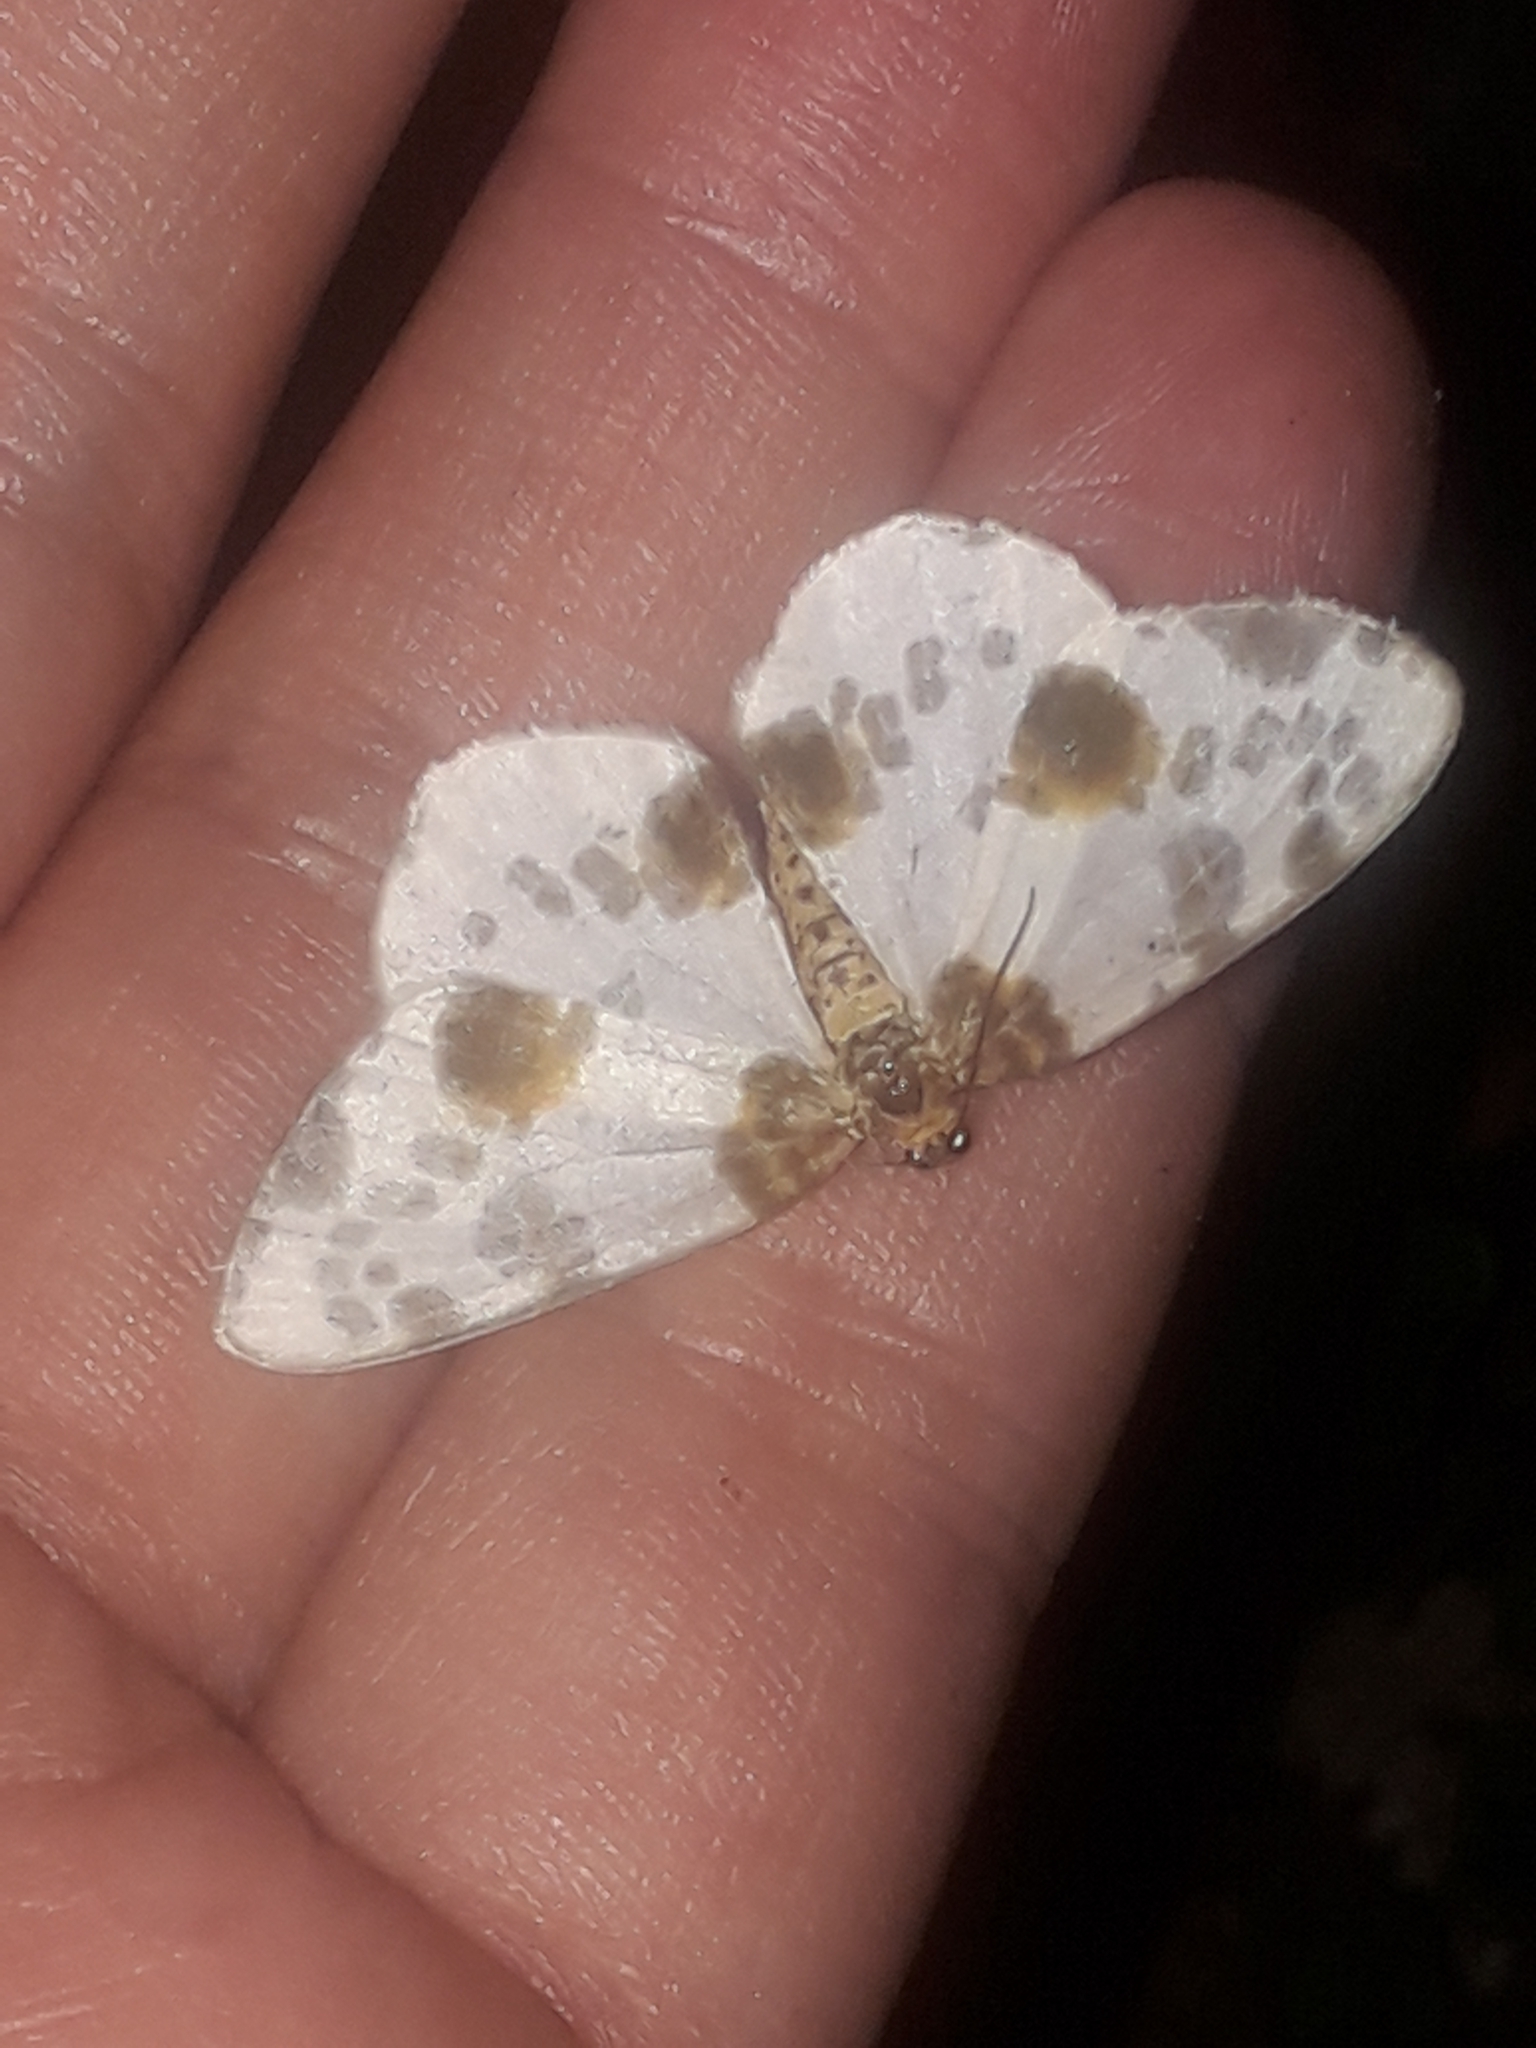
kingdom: Animalia
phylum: Arthropoda
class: Insecta
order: Lepidoptera
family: Geometridae
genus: Abraxas
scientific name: Abraxas sylvata
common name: Clouded magpie
